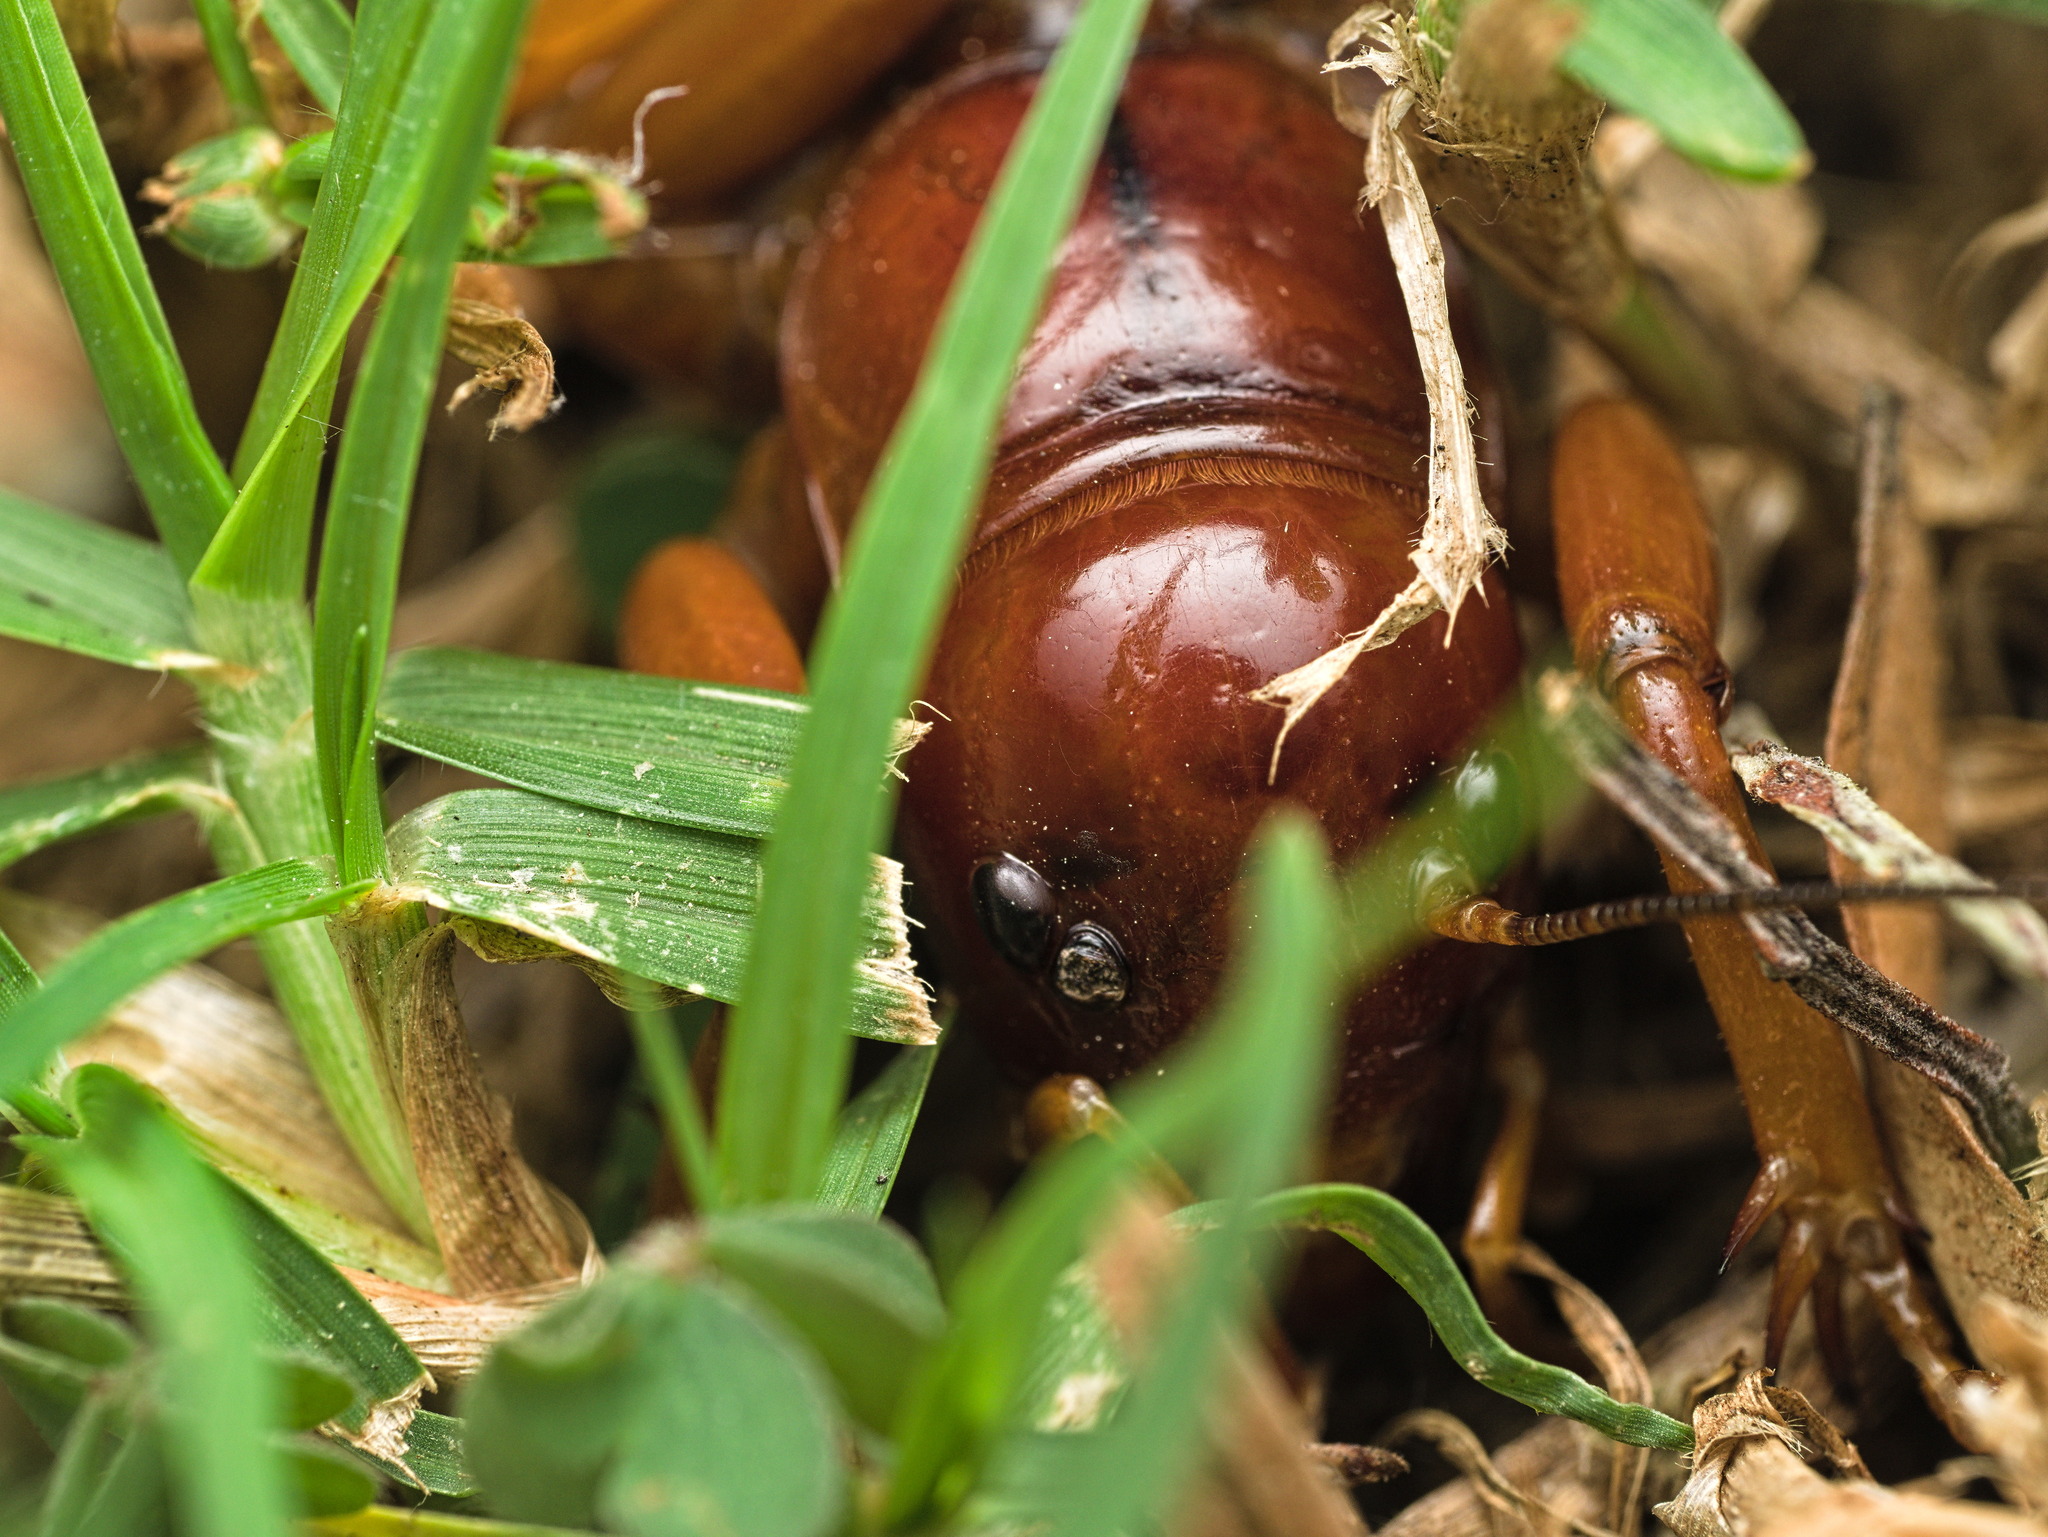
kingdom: Animalia
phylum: Arthropoda
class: Insecta
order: Orthoptera
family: Stenopelmatidae
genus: Stenopelmatus
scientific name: Stenopelmatus talpa
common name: Mole jerusalem cricket
